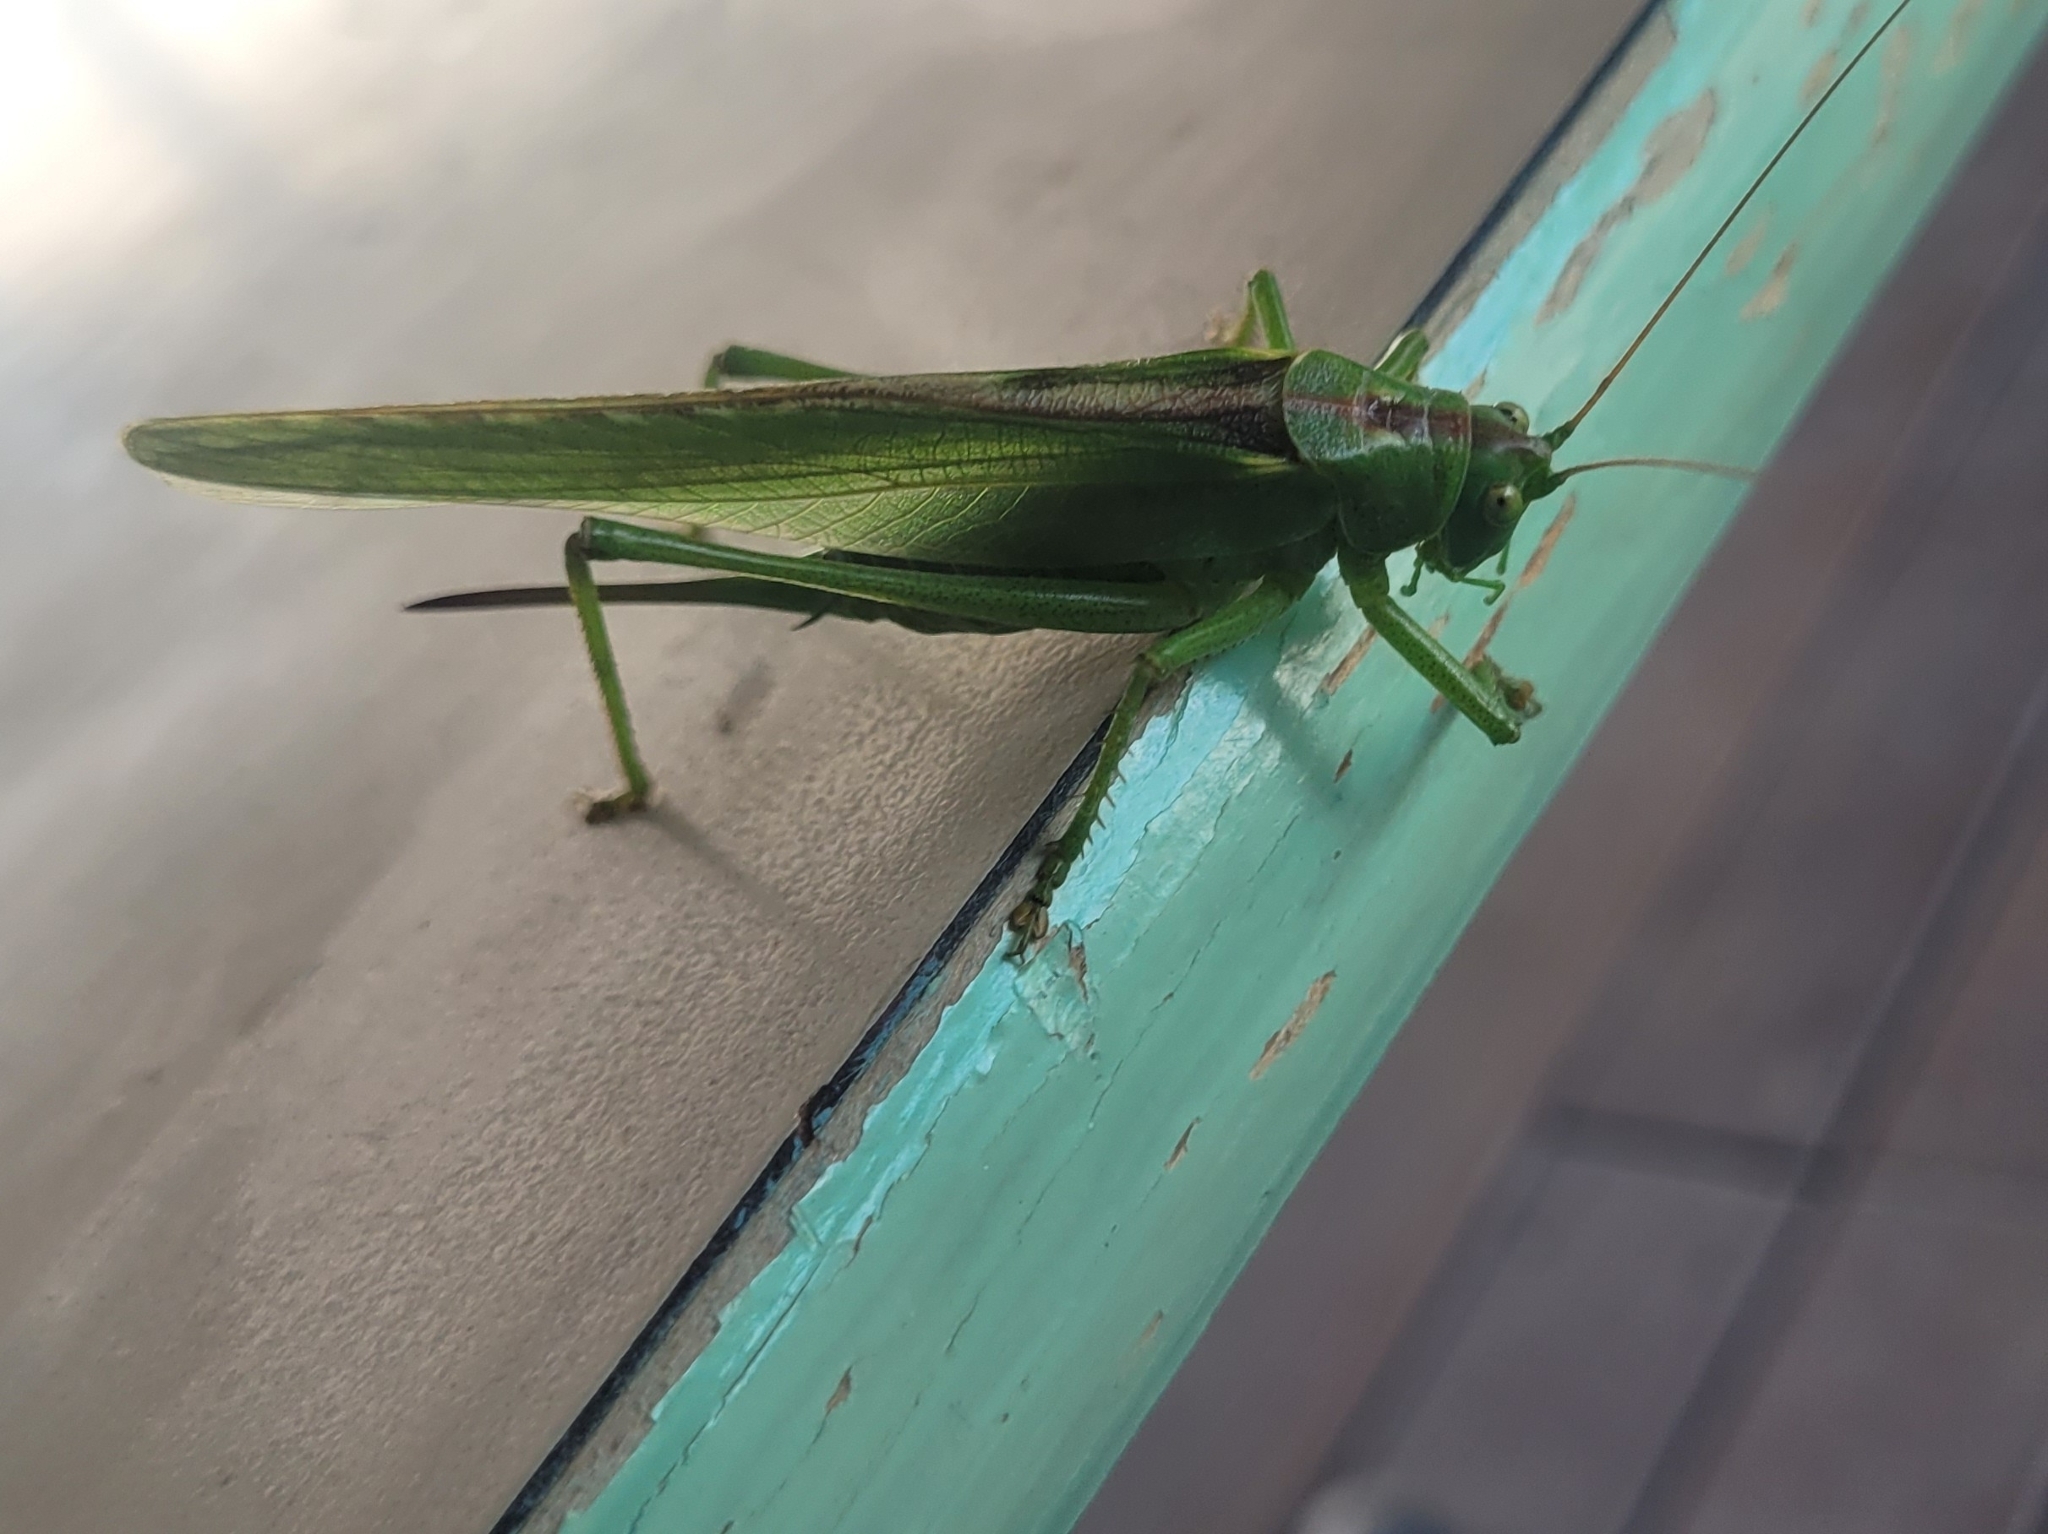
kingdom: Animalia
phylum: Arthropoda
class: Insecta
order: Orthoptera
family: Tettigoniidae
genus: Tettigonia
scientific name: Tettigonia viridissima
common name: Great green bush-cricket
